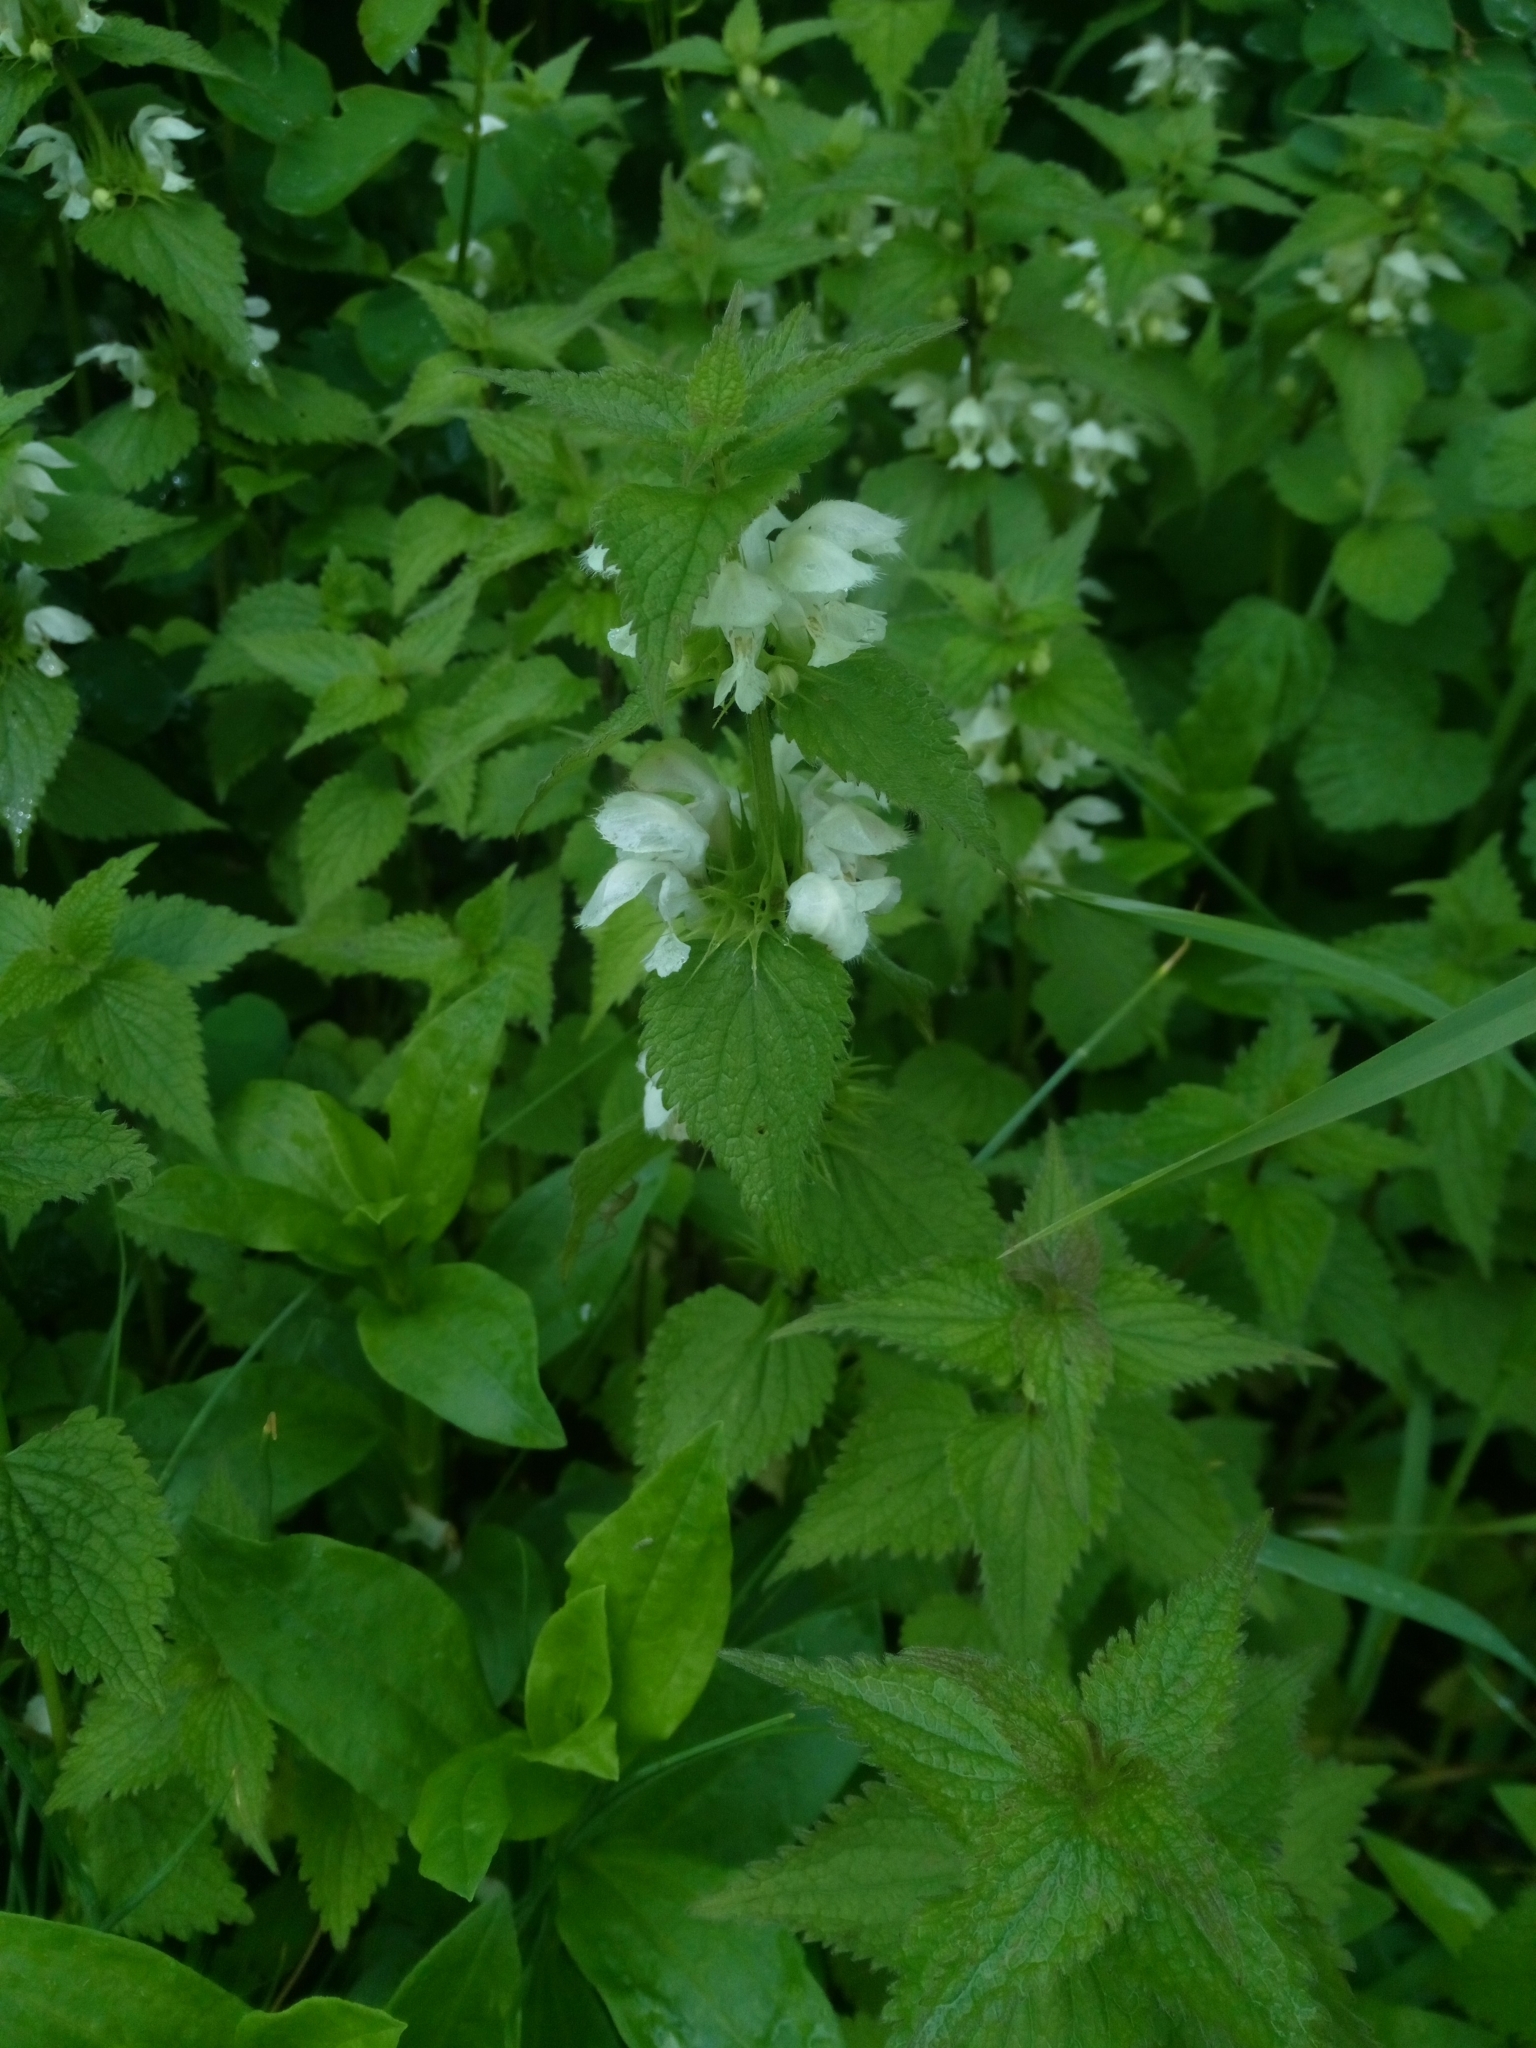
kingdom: Plantae
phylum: Tracheophyta
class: Magnoliopsida
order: Lamiales
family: Lamiaceae
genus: Lamium
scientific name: Lamium album
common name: White dead-nettle
